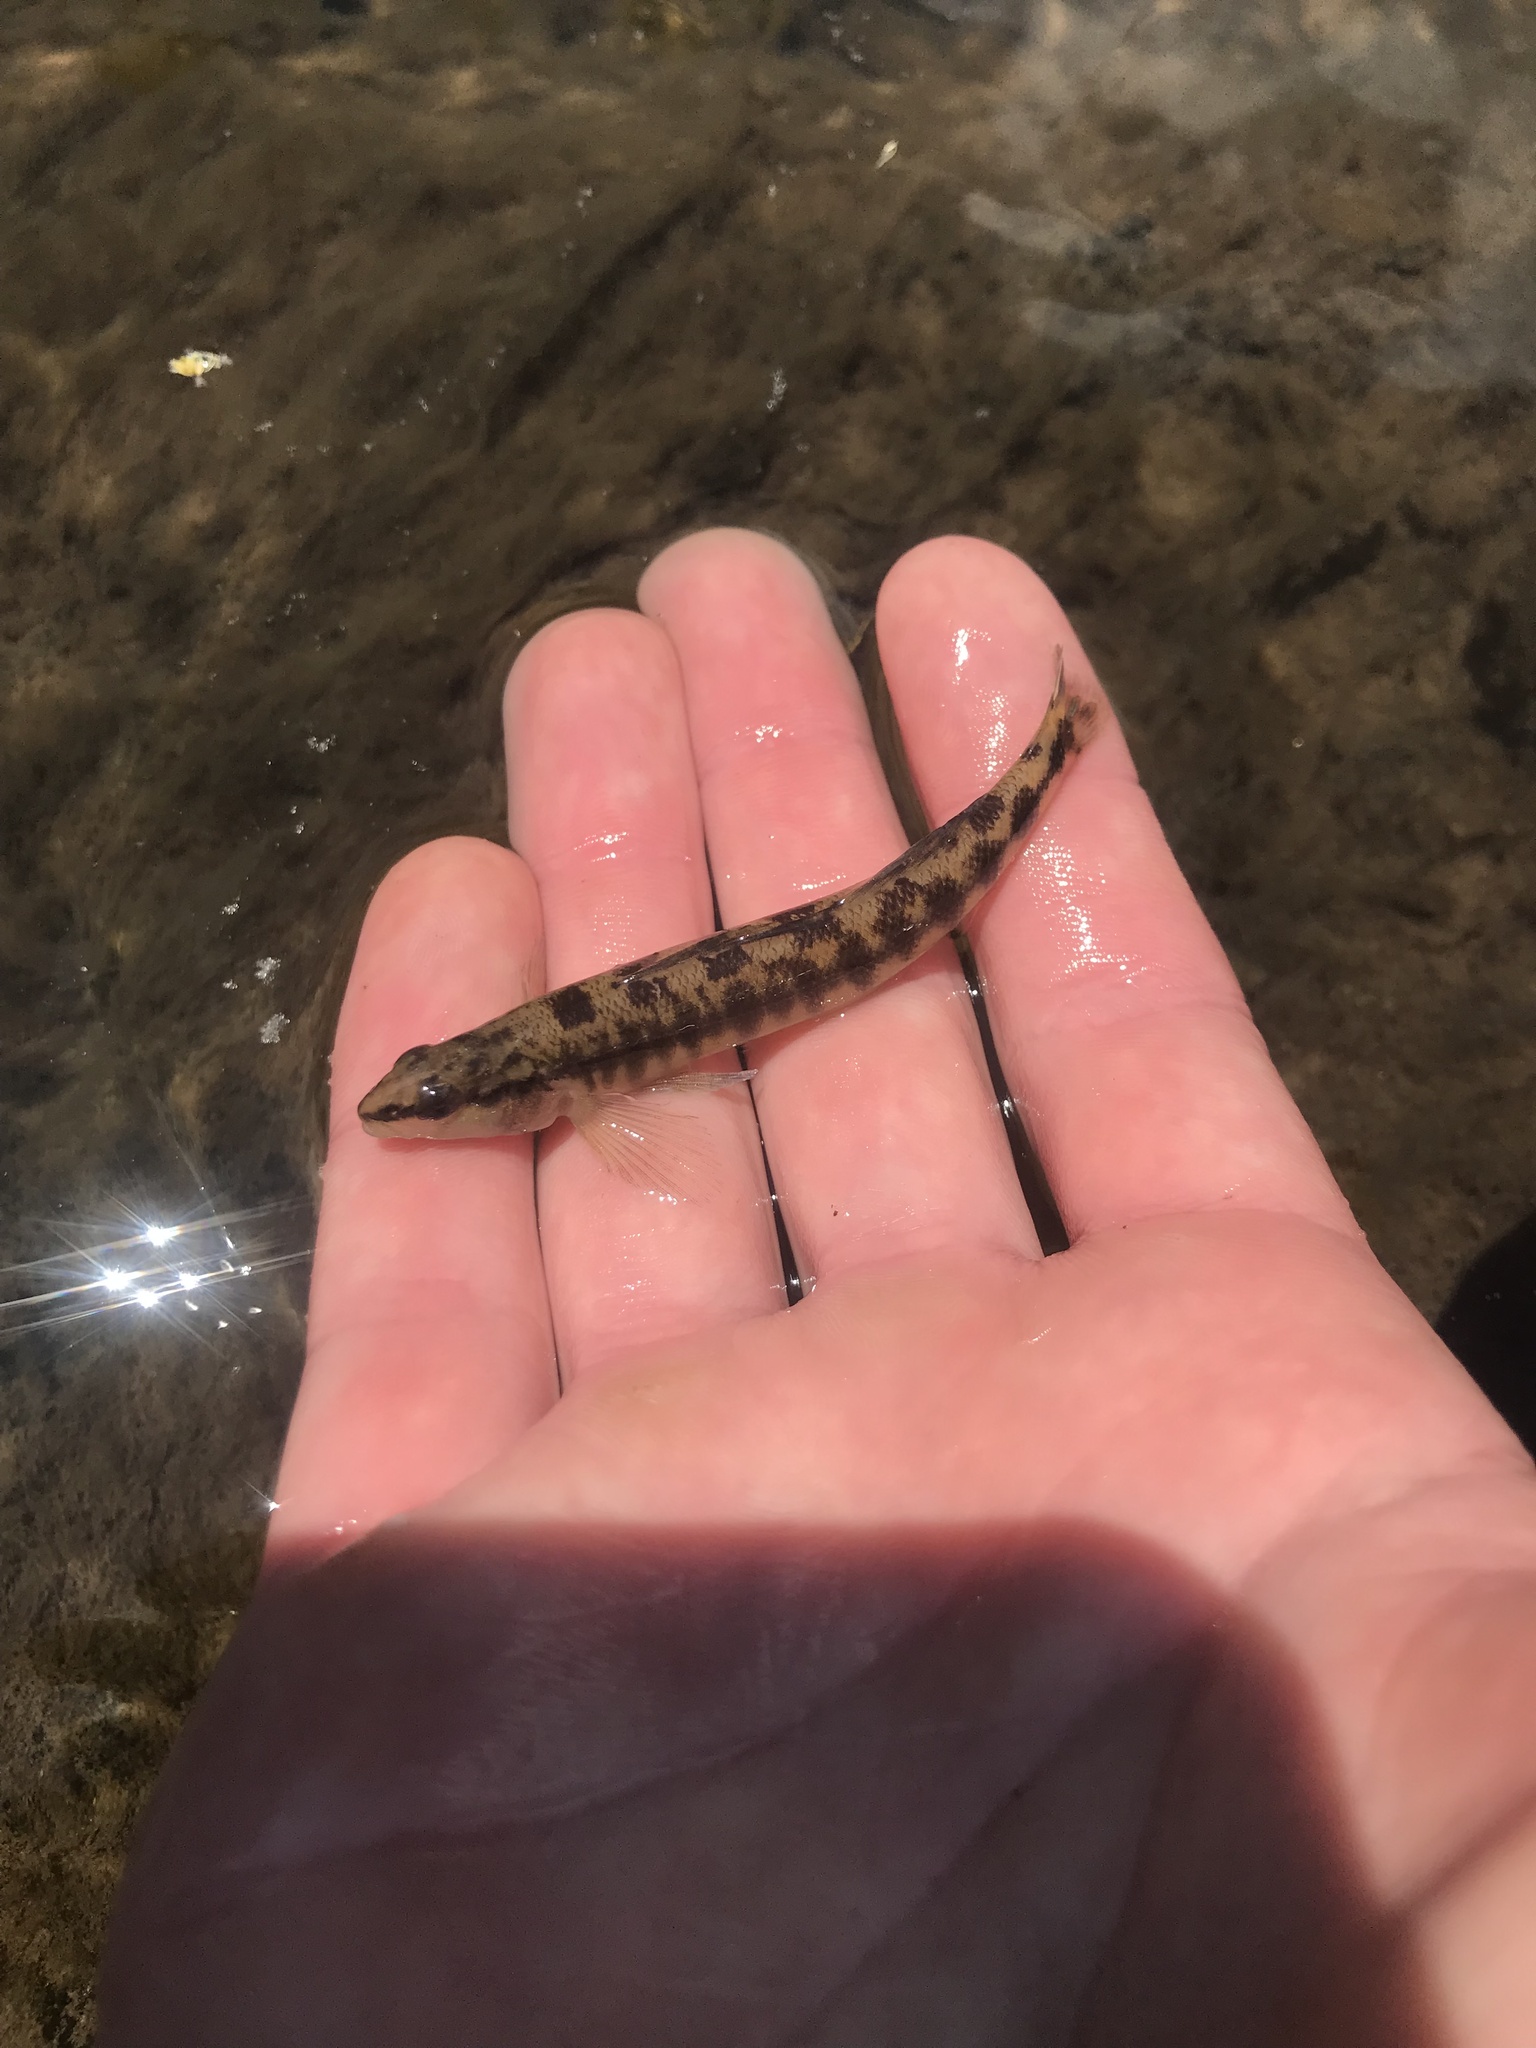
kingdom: Animalia
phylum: Chordata
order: Perciformes
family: Percidae
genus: Percina
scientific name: Percina nigrofasciata
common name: Blackbanded darter
